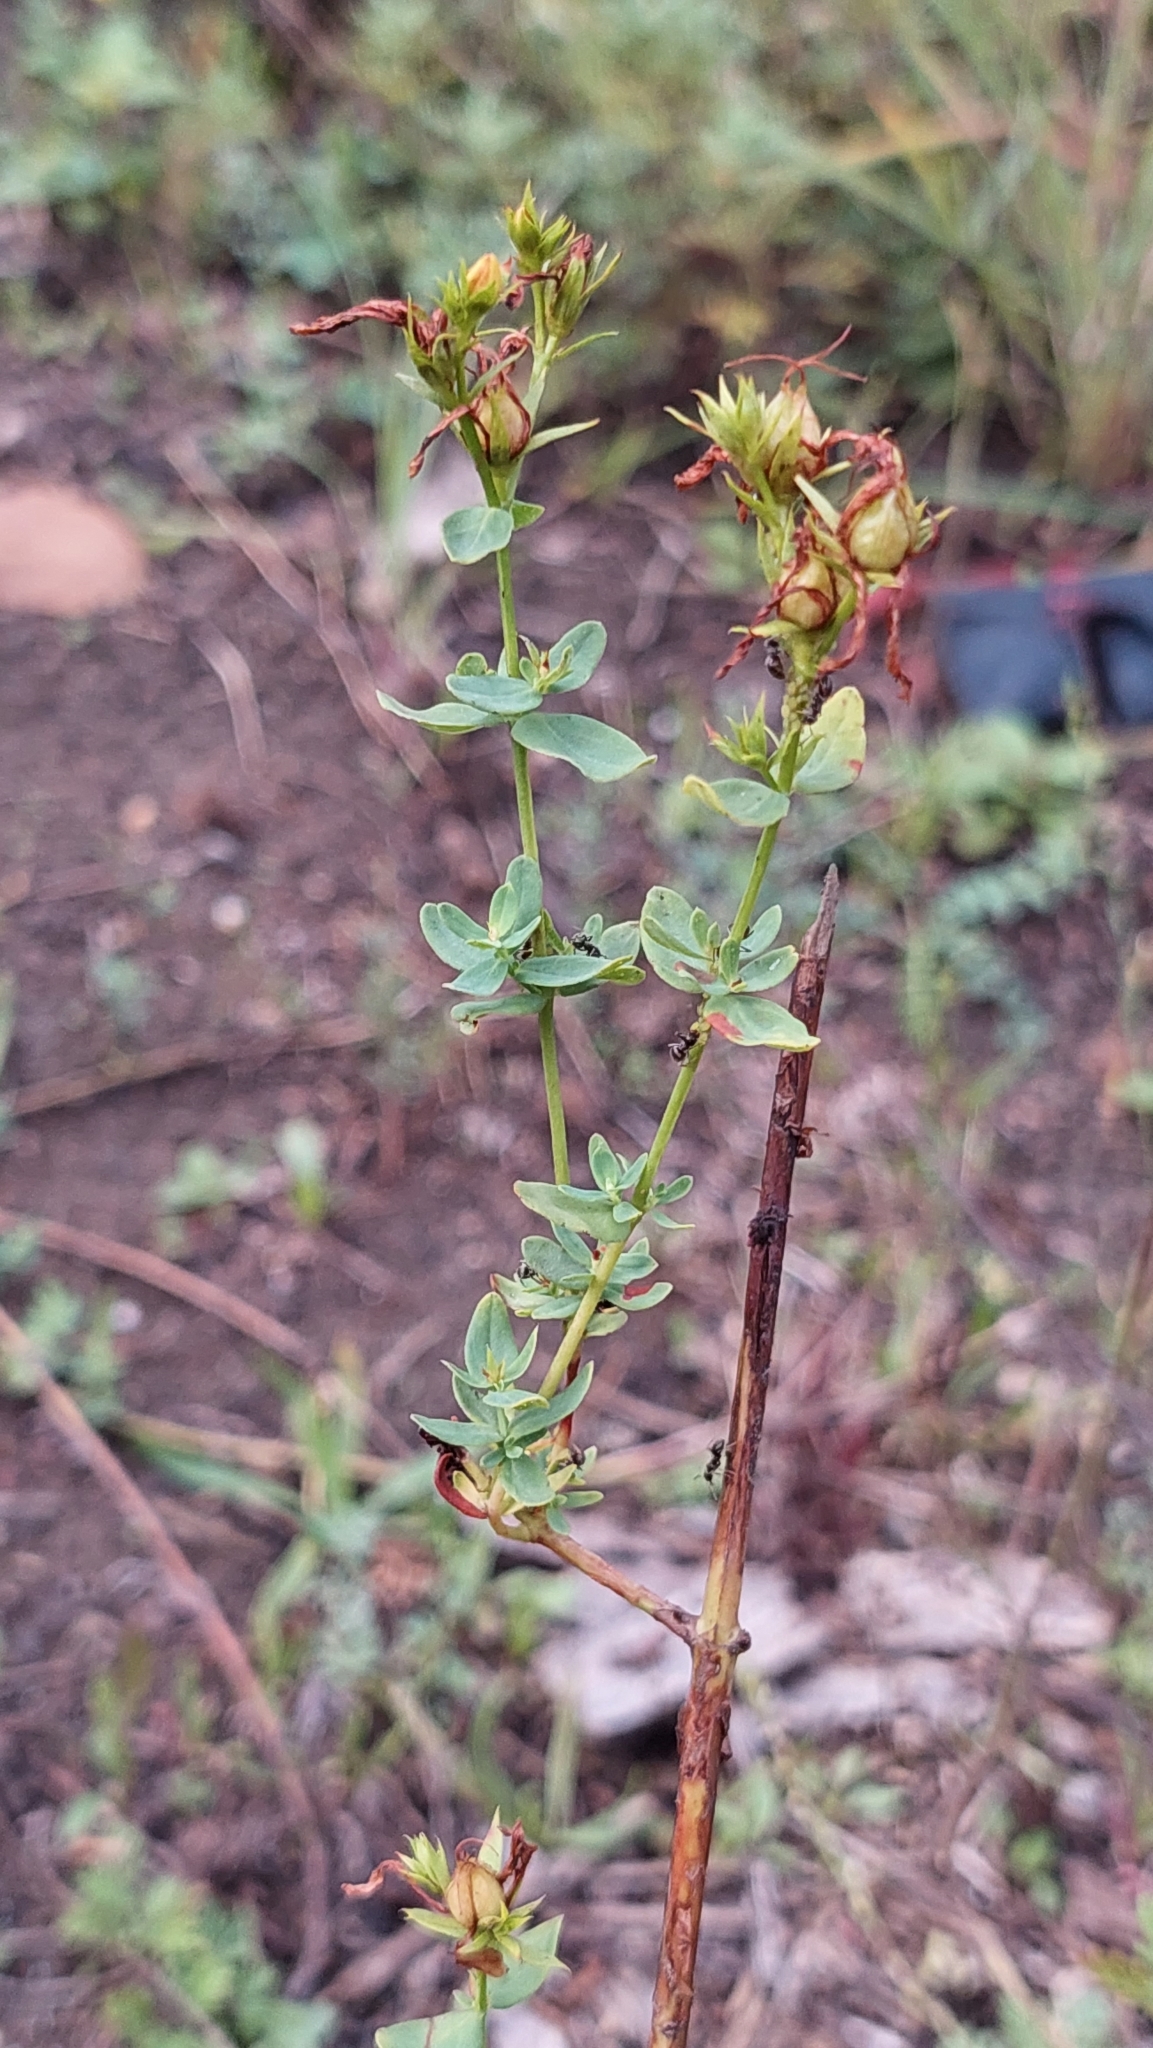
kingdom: Plantae
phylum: Tracheophyta
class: Magnoliopsida
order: Malpighiales
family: Hypericaceae
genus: Hypericum
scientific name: Hypericum perforatum
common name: Common st. johnswort
